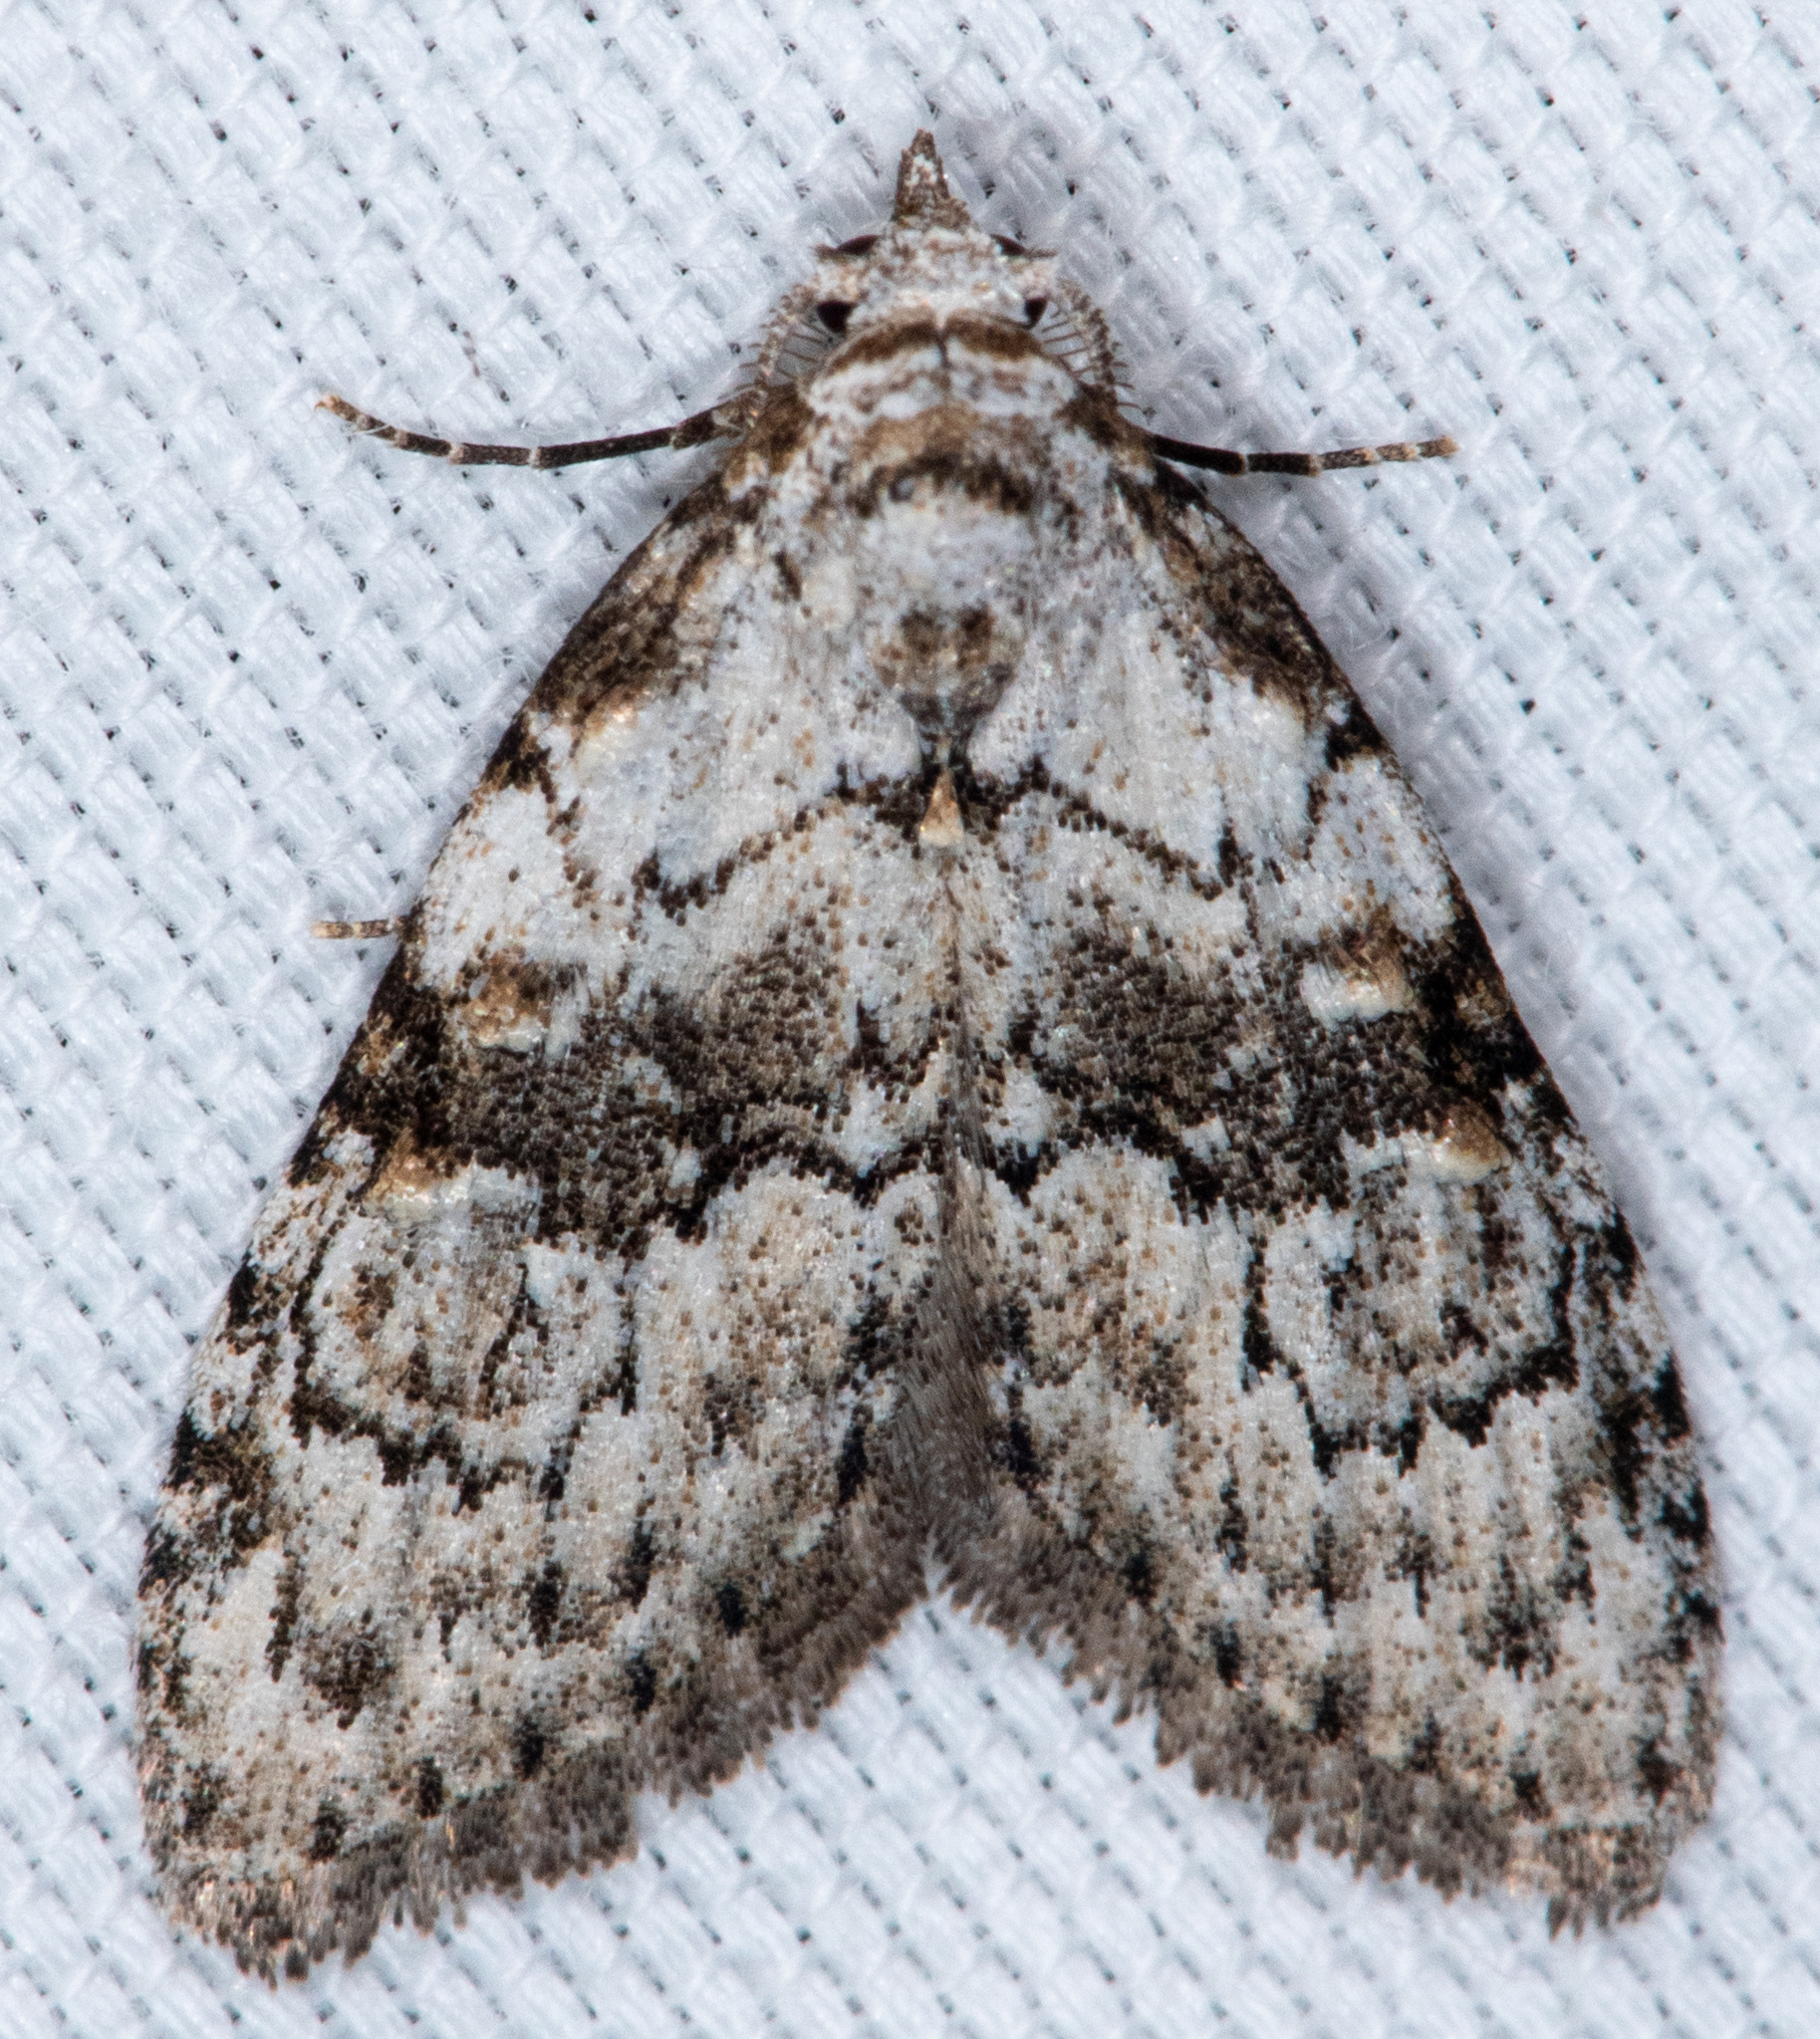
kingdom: Animalia
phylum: Arthropoda
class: Insecta
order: Lepidoptera
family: Nolidae
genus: Meganola
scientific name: Meganola minuscula
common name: Confused meganola moth
